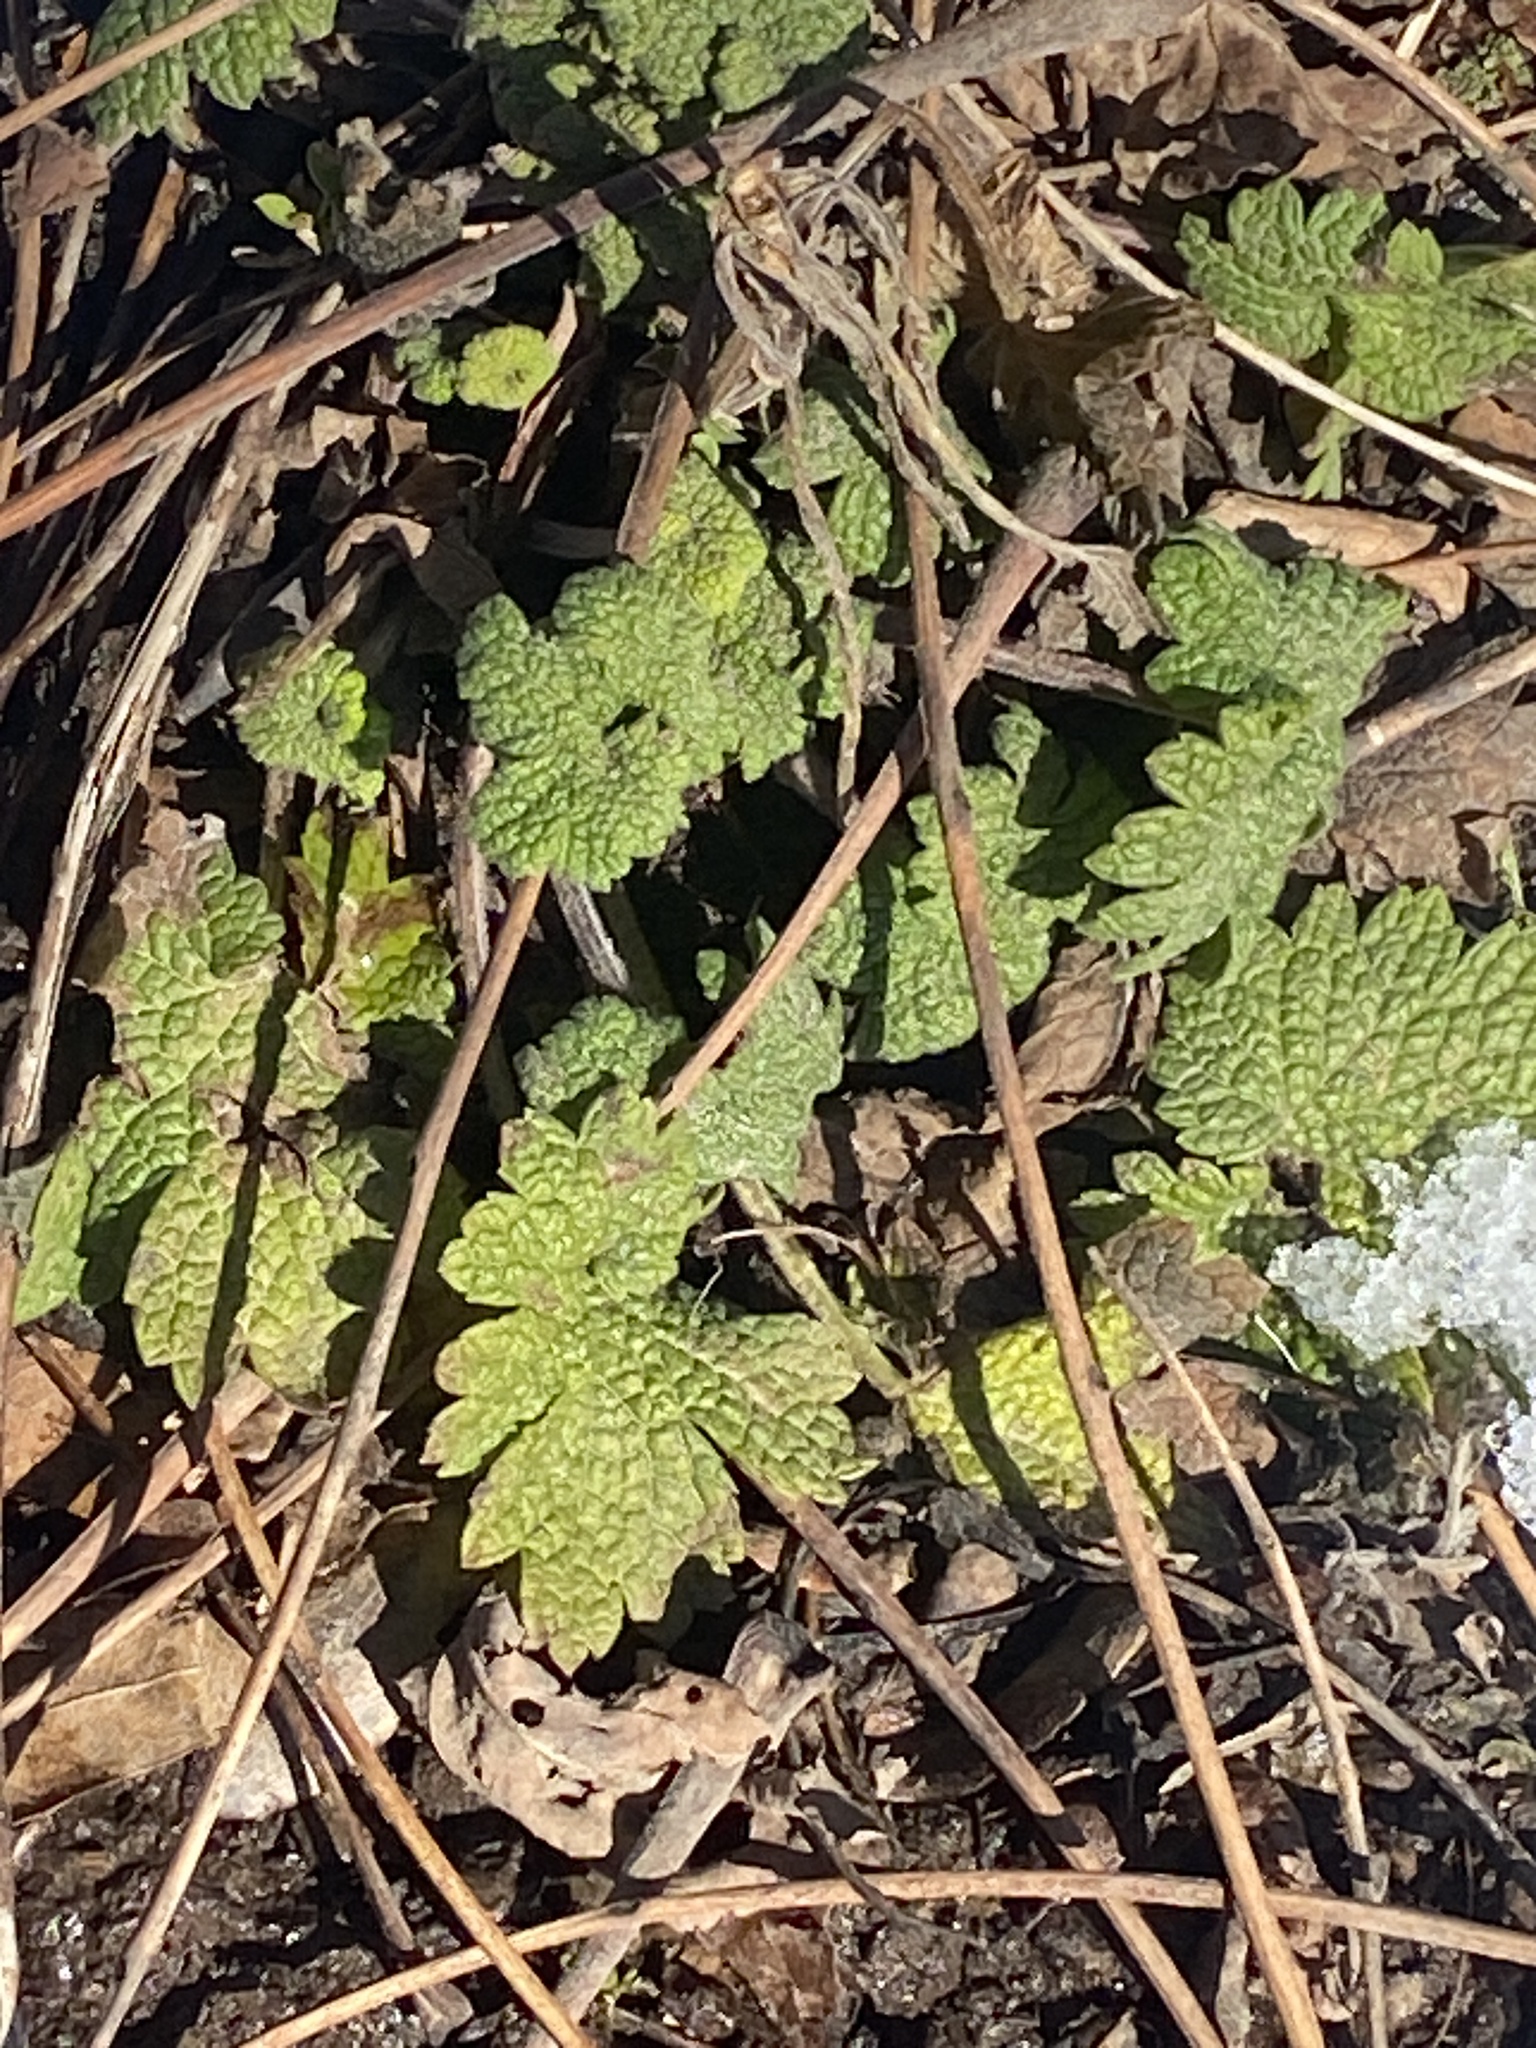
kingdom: Plantae
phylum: Tracheophyta
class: Magnoliopsida
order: Lamiales
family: Lamiaceae
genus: Leonurus
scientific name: Leonurus cardiaca
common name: Motherwort
